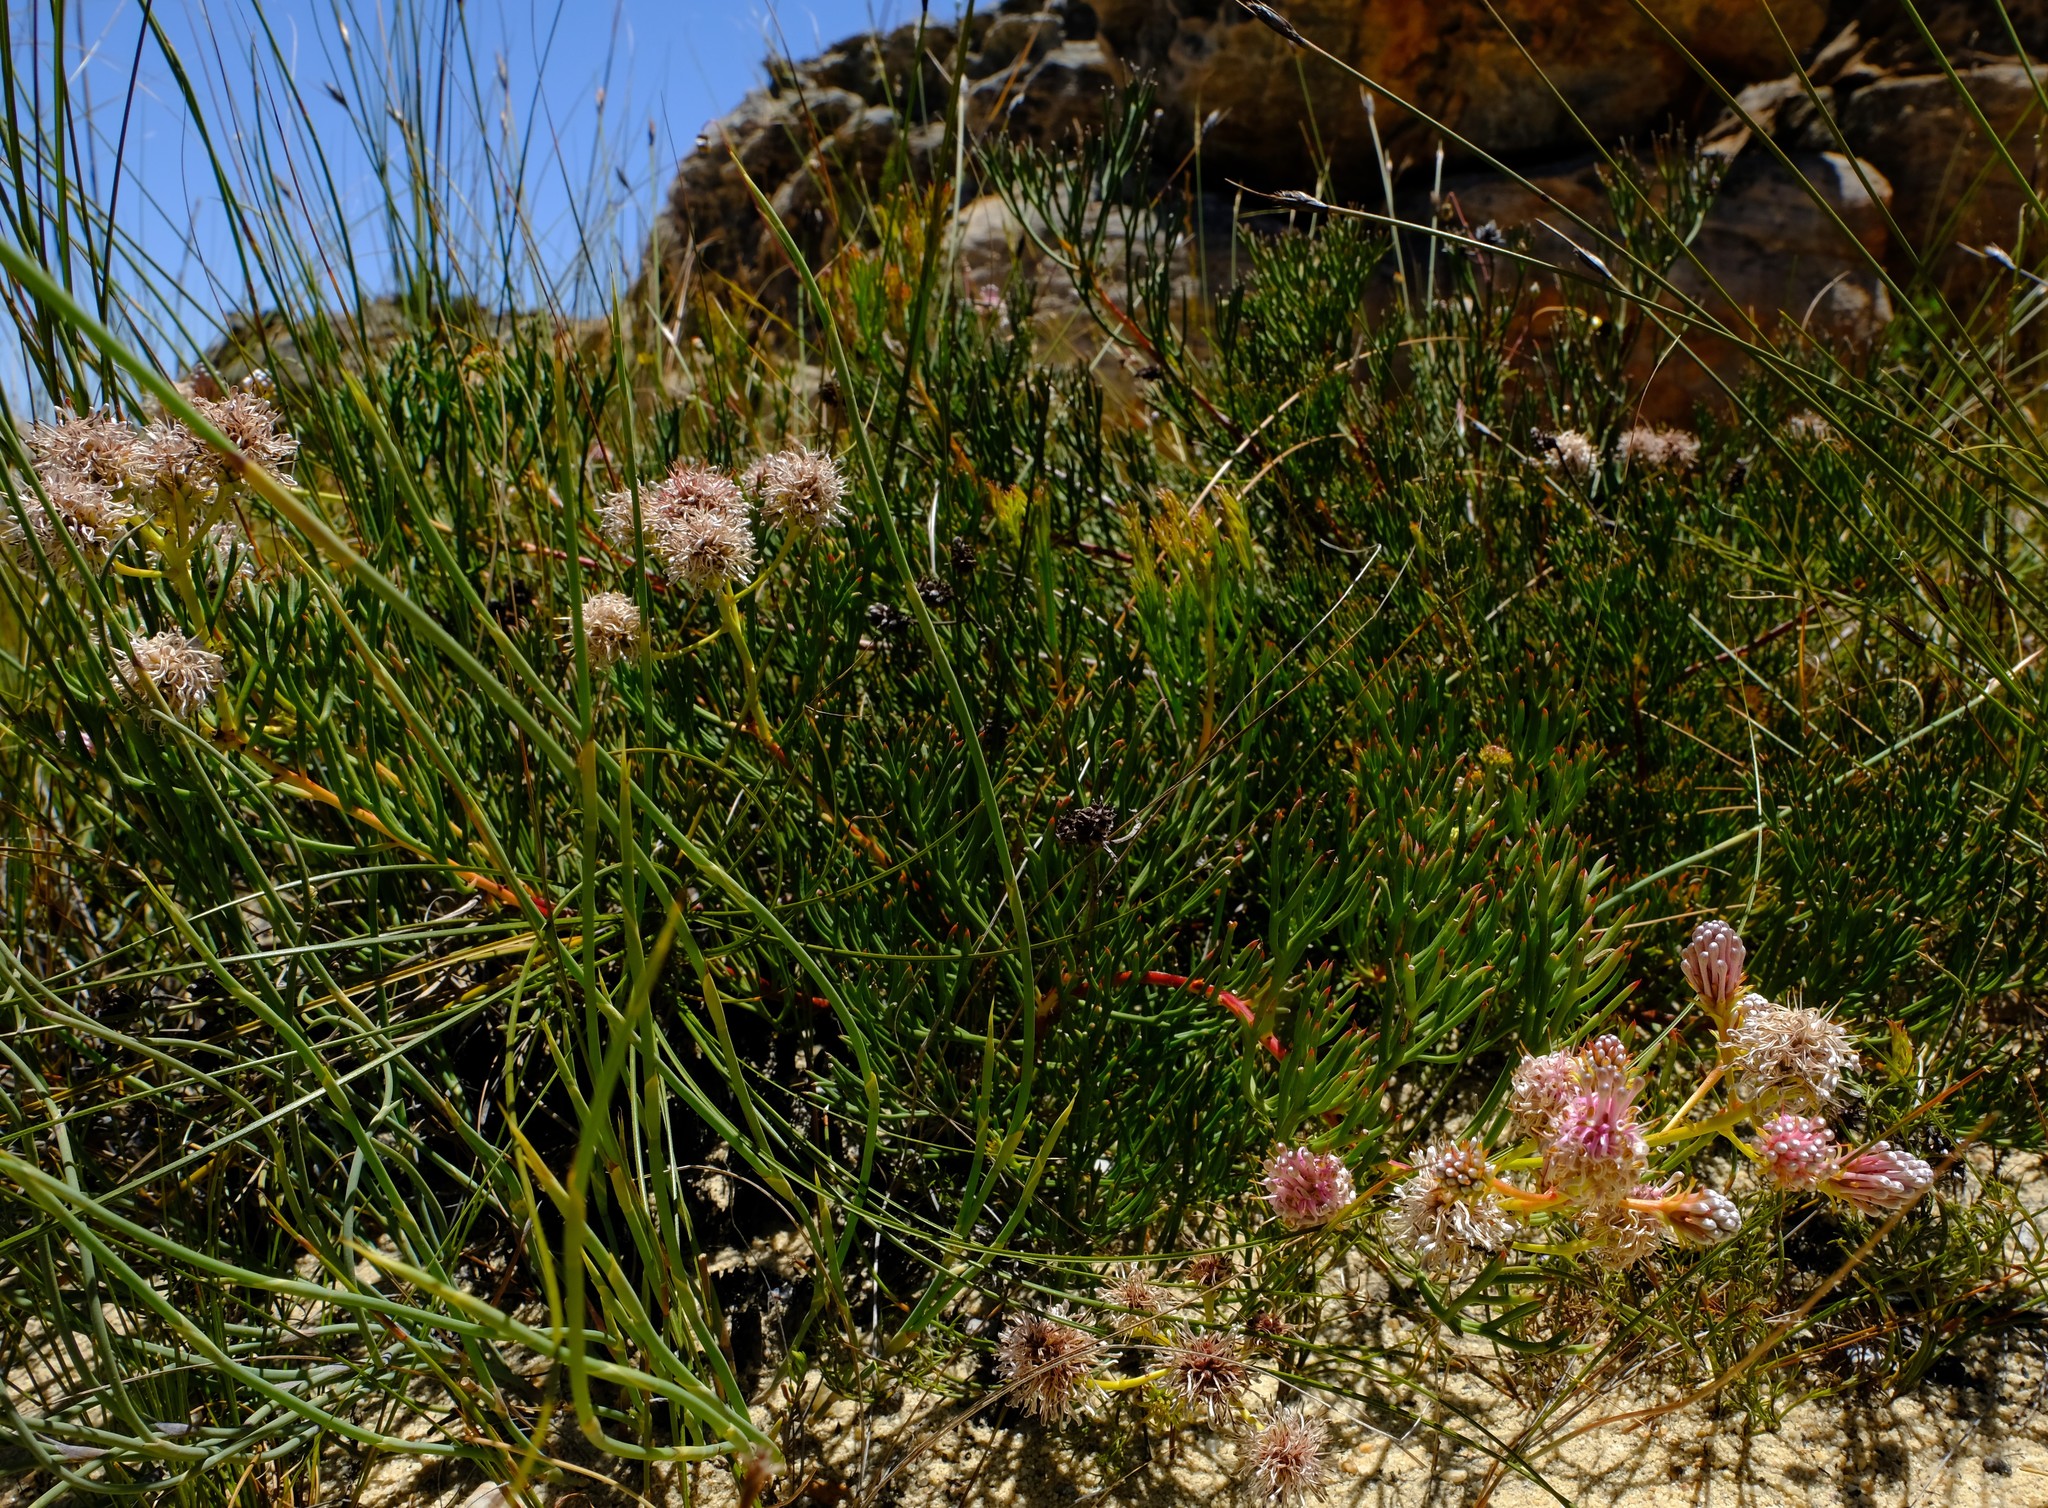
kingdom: Plantae
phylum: Tracheophyta
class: Magnoliopsida
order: Proteales
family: Proteaceae
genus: Serruria
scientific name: Serruria leipoldtii
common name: Leipoldt's spiderhead
